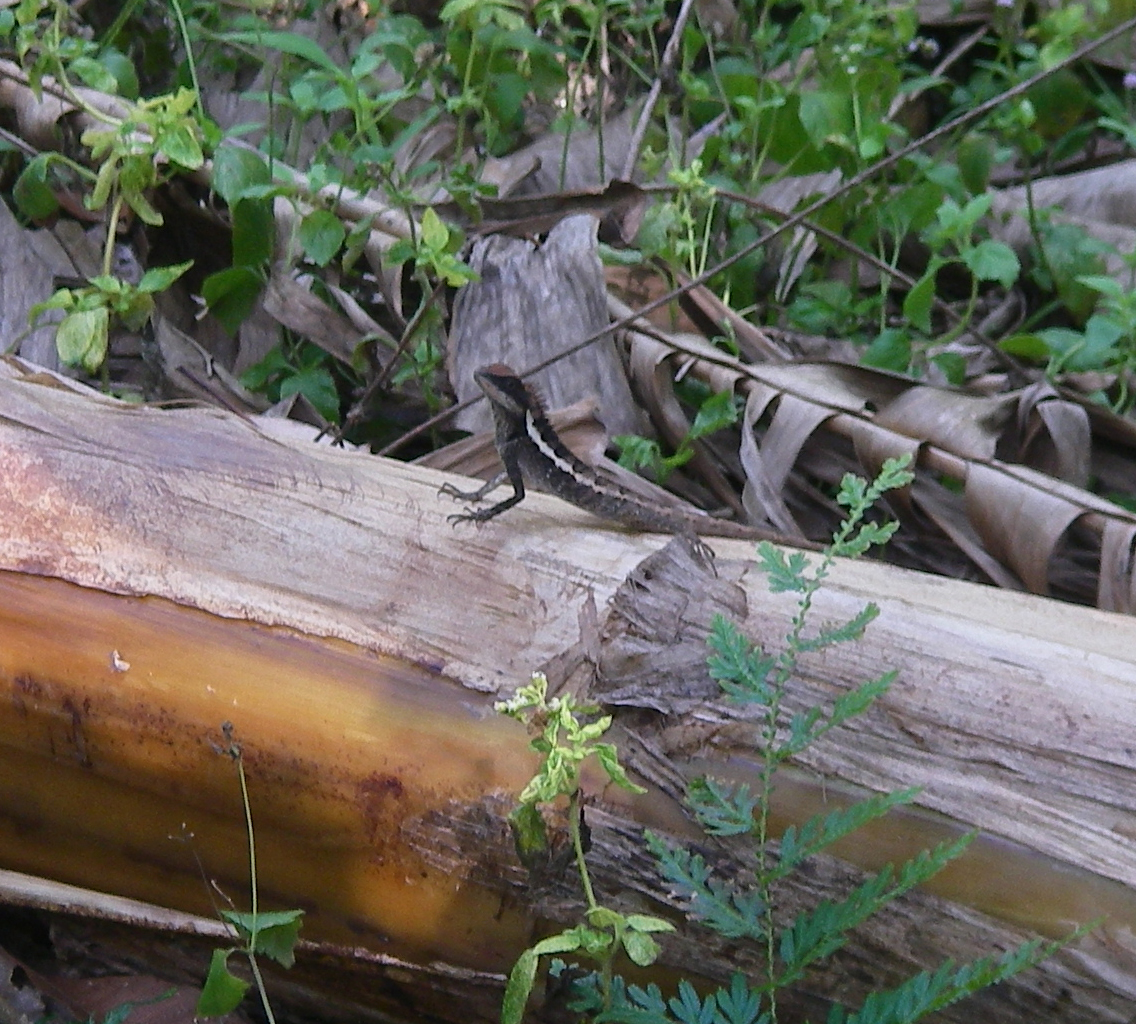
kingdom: Animalia
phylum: Chordata
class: Squamata
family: Agamidae
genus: Calotes
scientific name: Calotes emma
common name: Thailand bloodsucker
